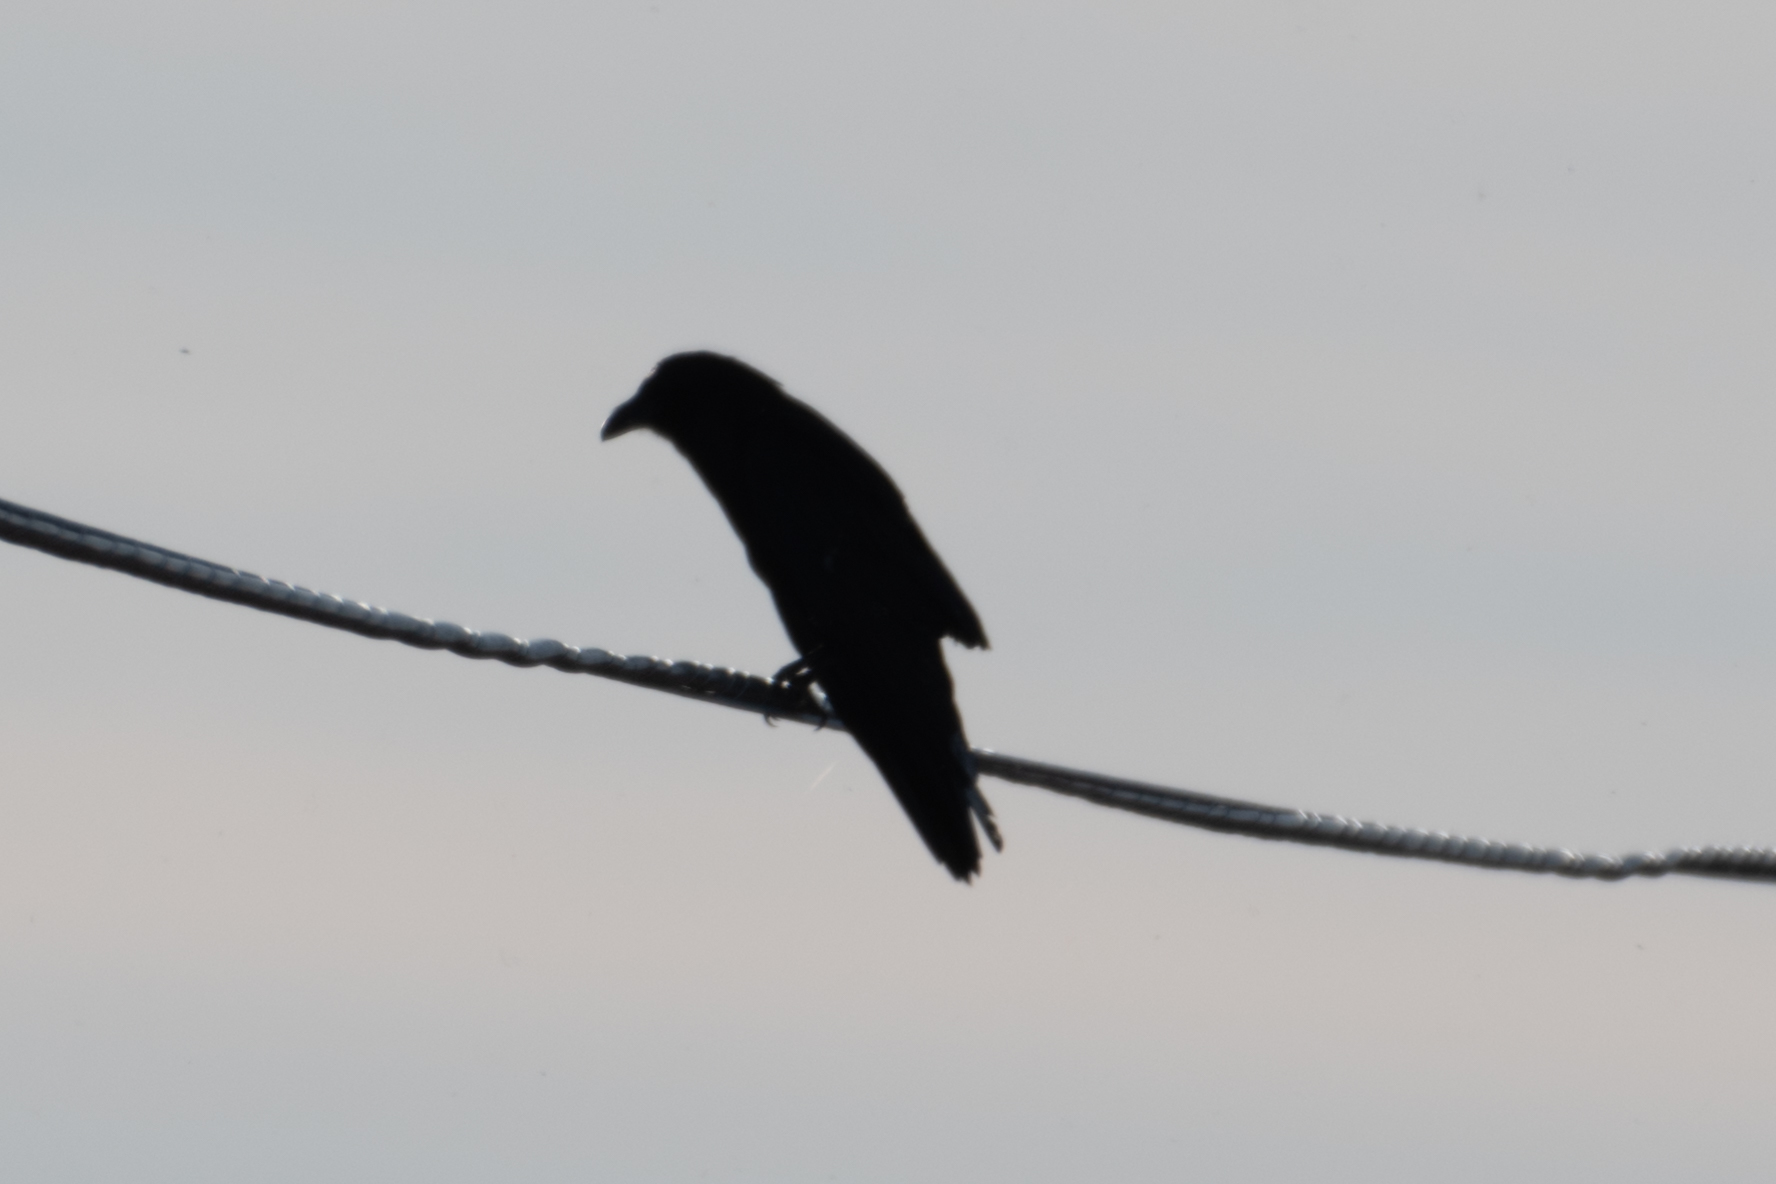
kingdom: Animalia
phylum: Chordata
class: Aves
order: Passeriformes
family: Corvidae
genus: Corvus
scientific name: Corvus corax
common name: Common raven
